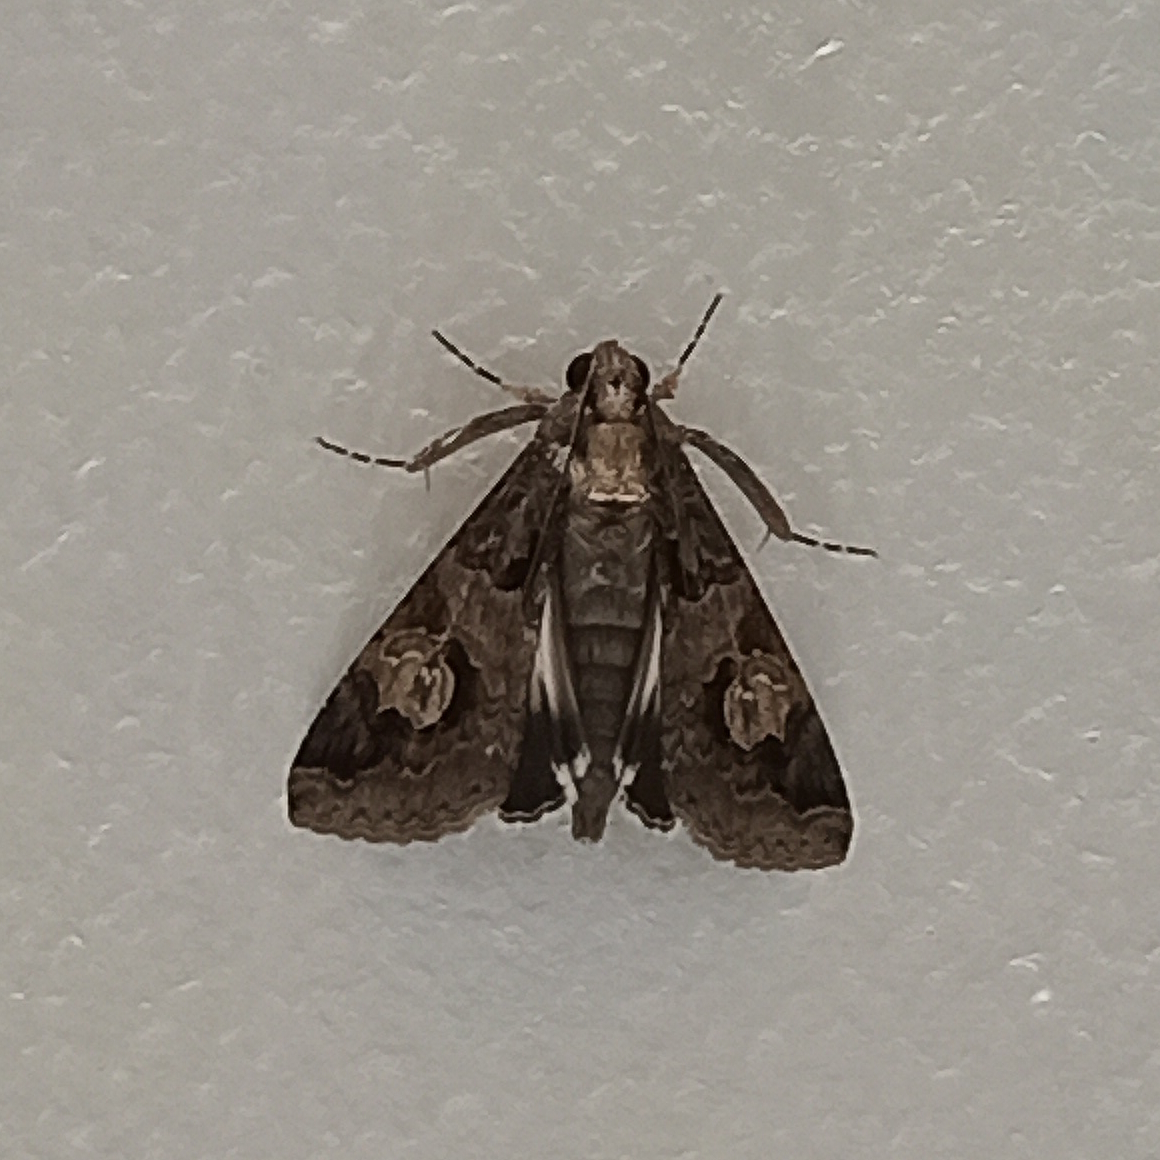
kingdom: Animalia
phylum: Arthropoda
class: Insecta
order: Lepidoptera
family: Erebidae
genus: Melipotis
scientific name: Melipotis famelica
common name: Famelica melipotis moth
